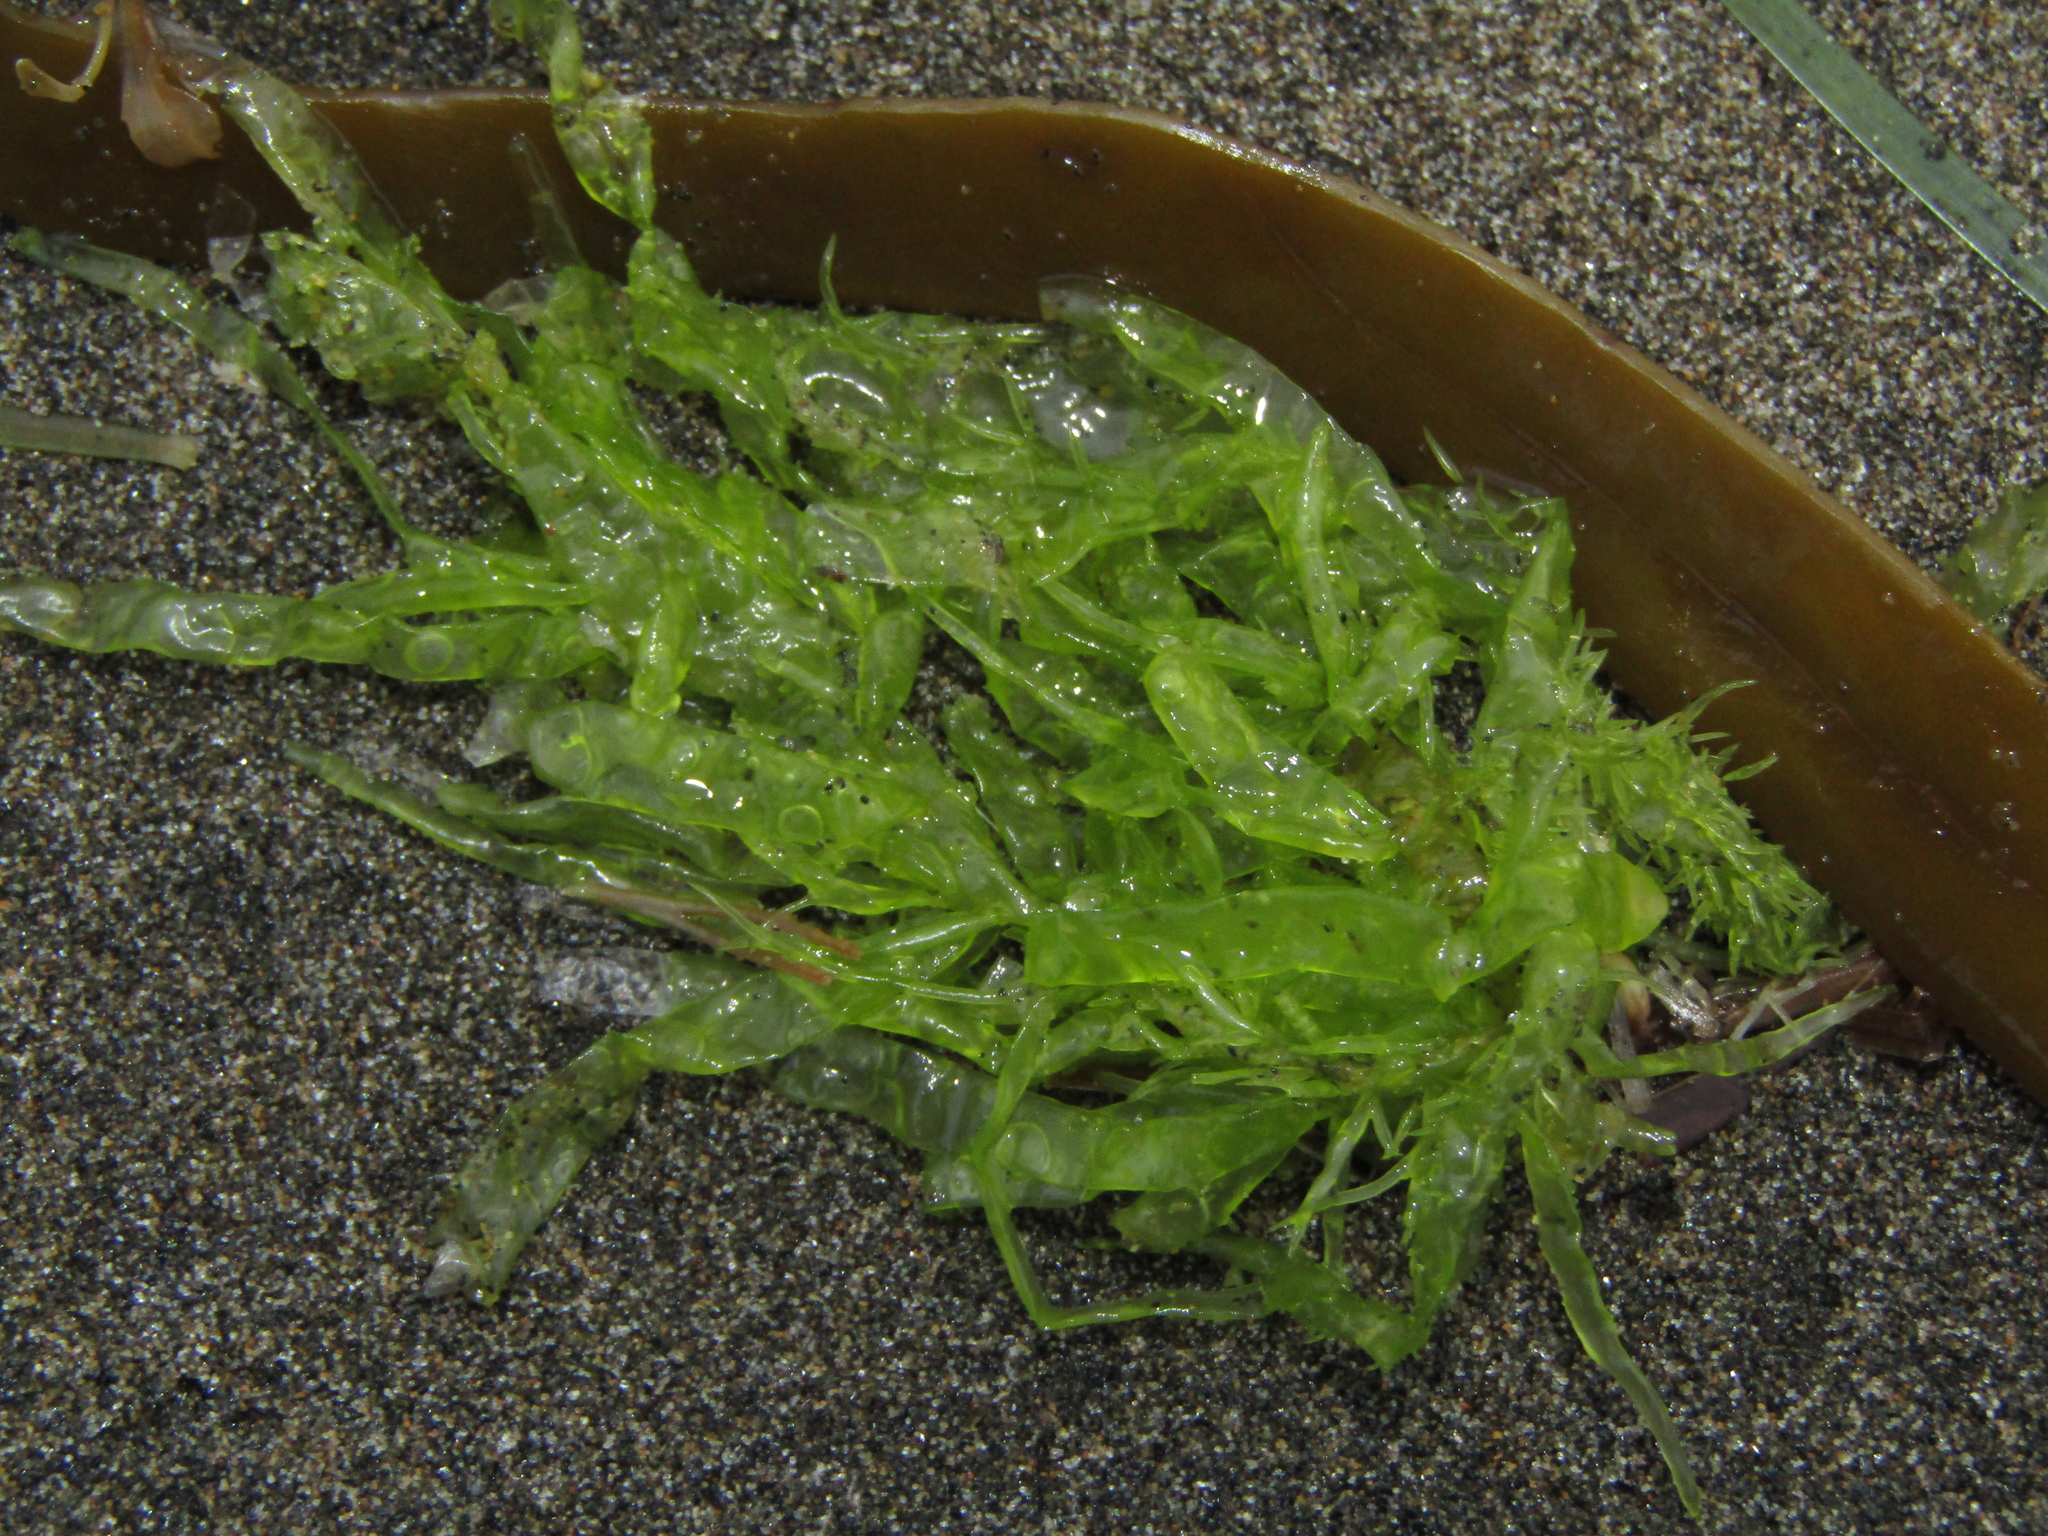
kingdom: Plantae
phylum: Chlorophyta
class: Ulvophyceae
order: Ulvales
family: Ulvaceae
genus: Ulva
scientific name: Ulva compressa
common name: Thread weed
